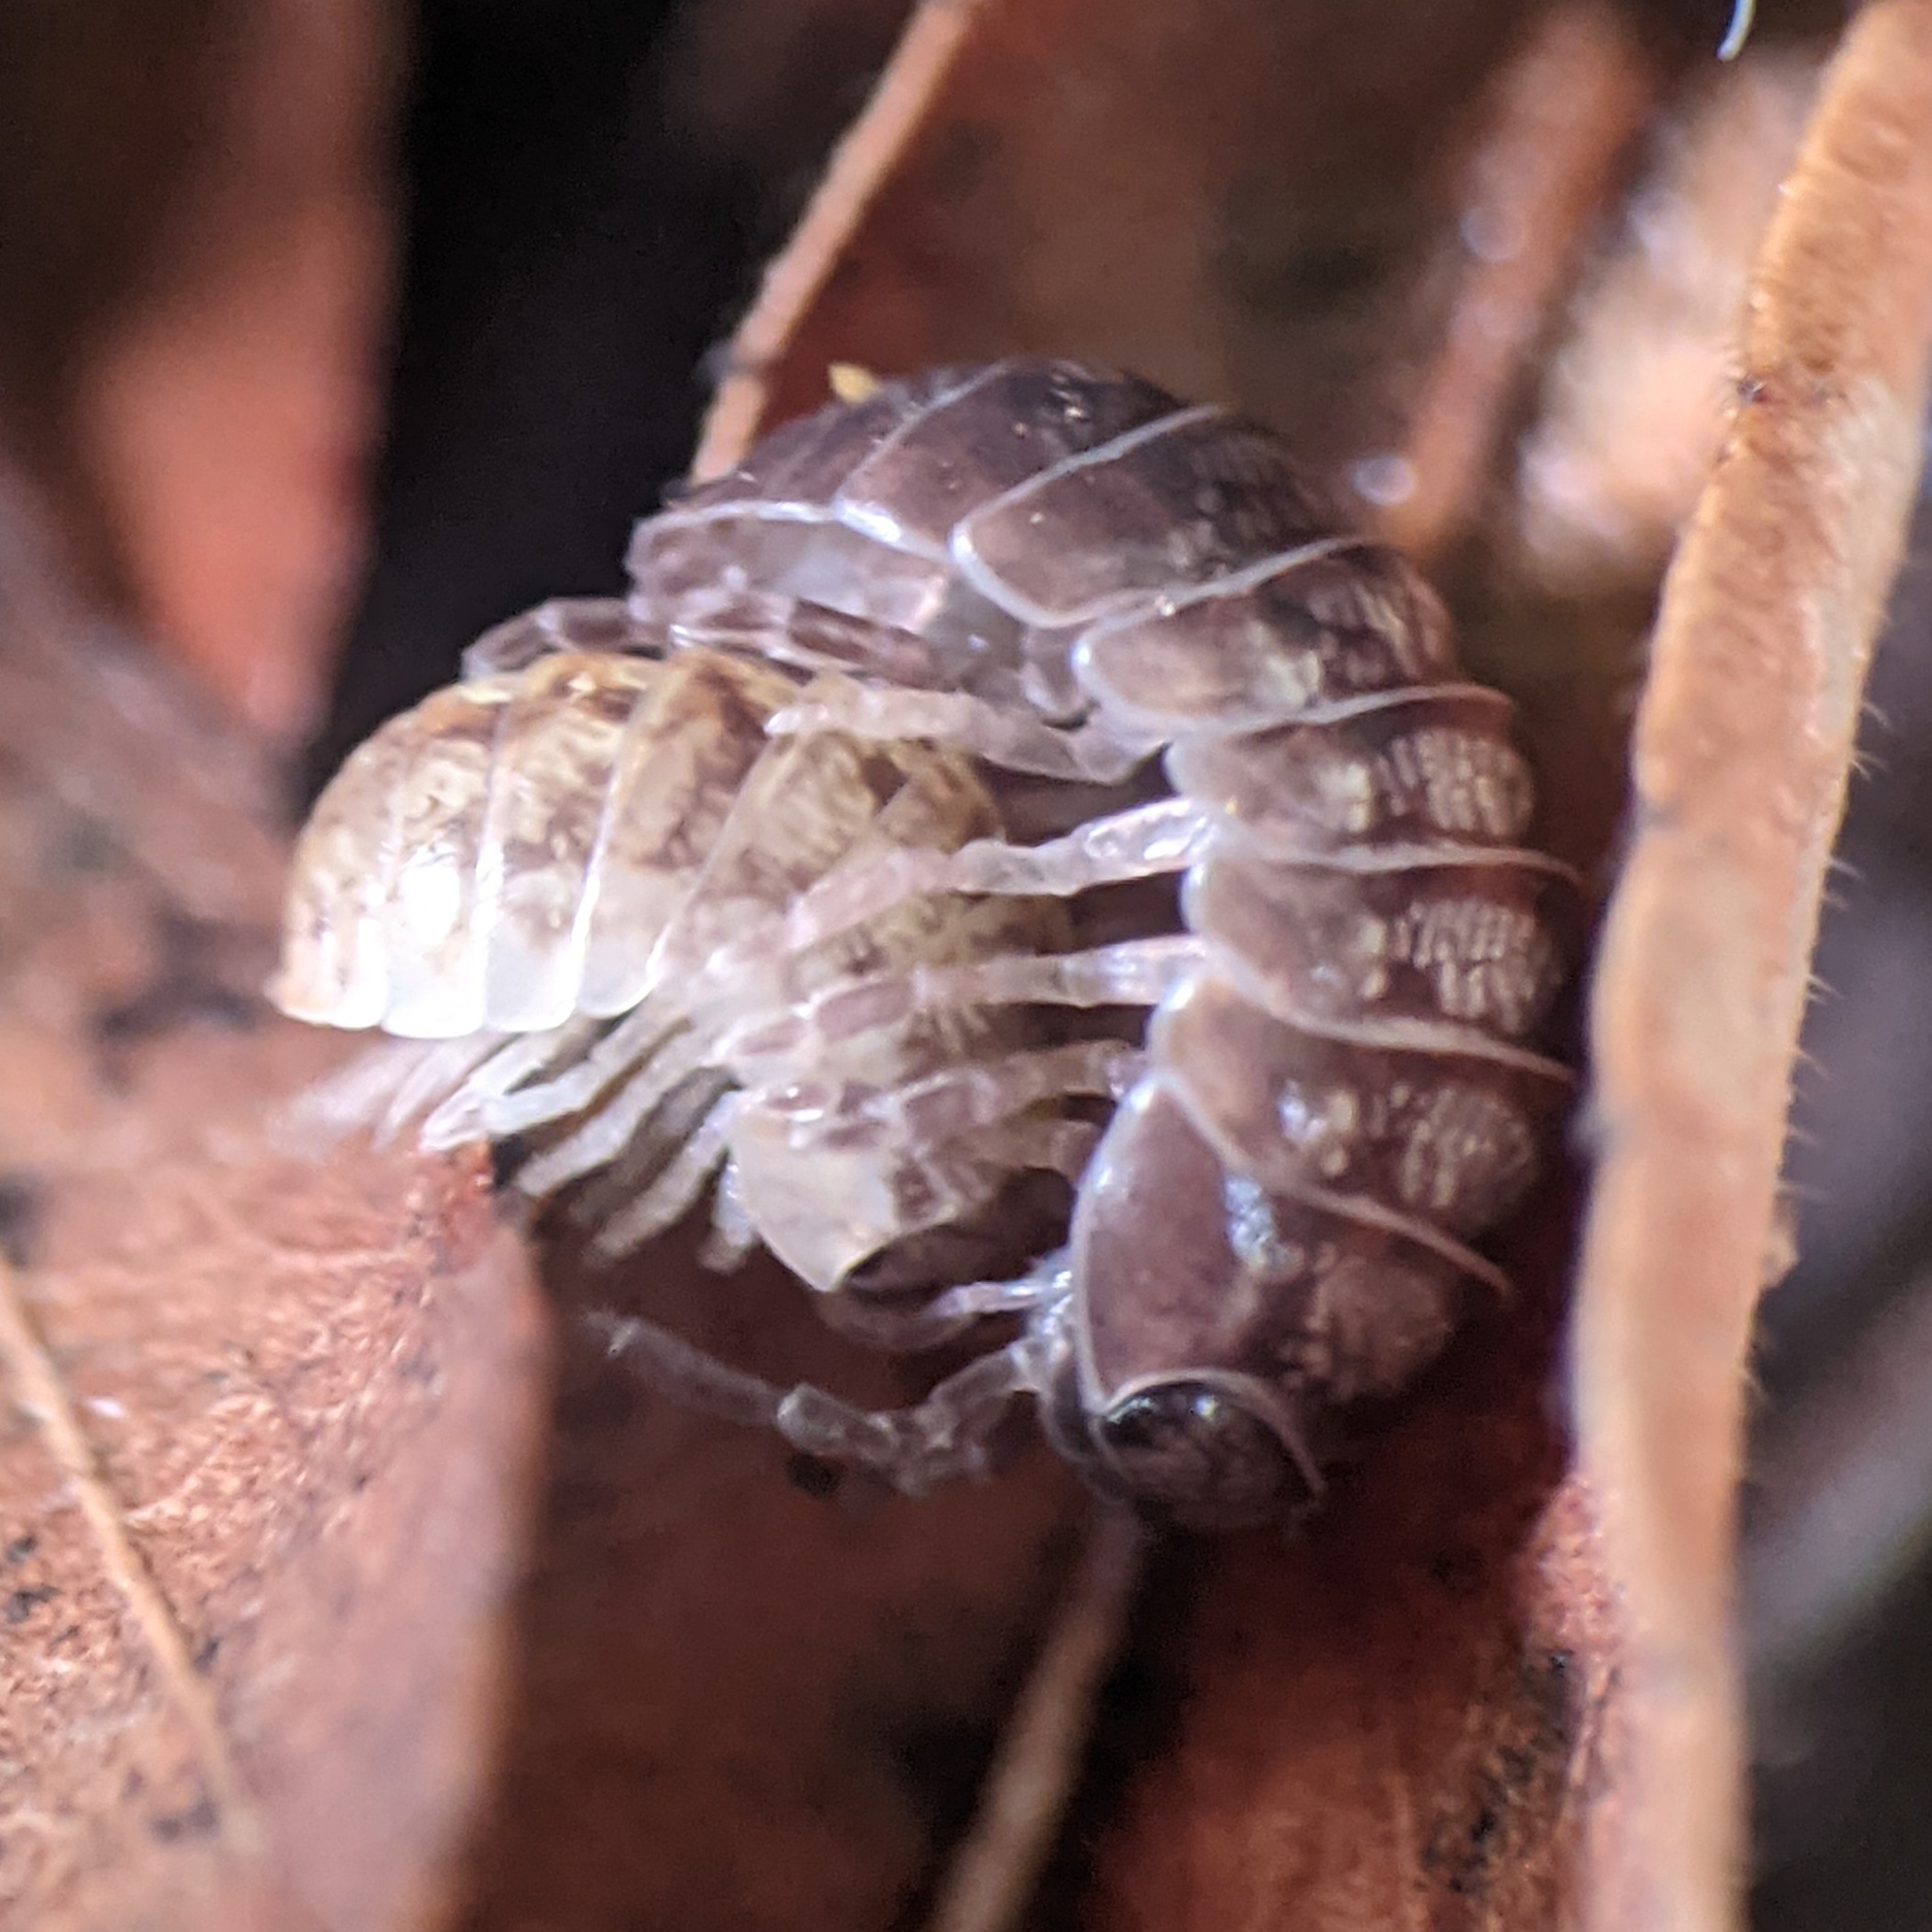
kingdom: Animalia
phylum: Arthropoda
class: Malacostraca
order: Isopoda
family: Armadillidiidae
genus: Armadillidium
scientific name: Armadillidium vulgare
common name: Common pill woodlouse
